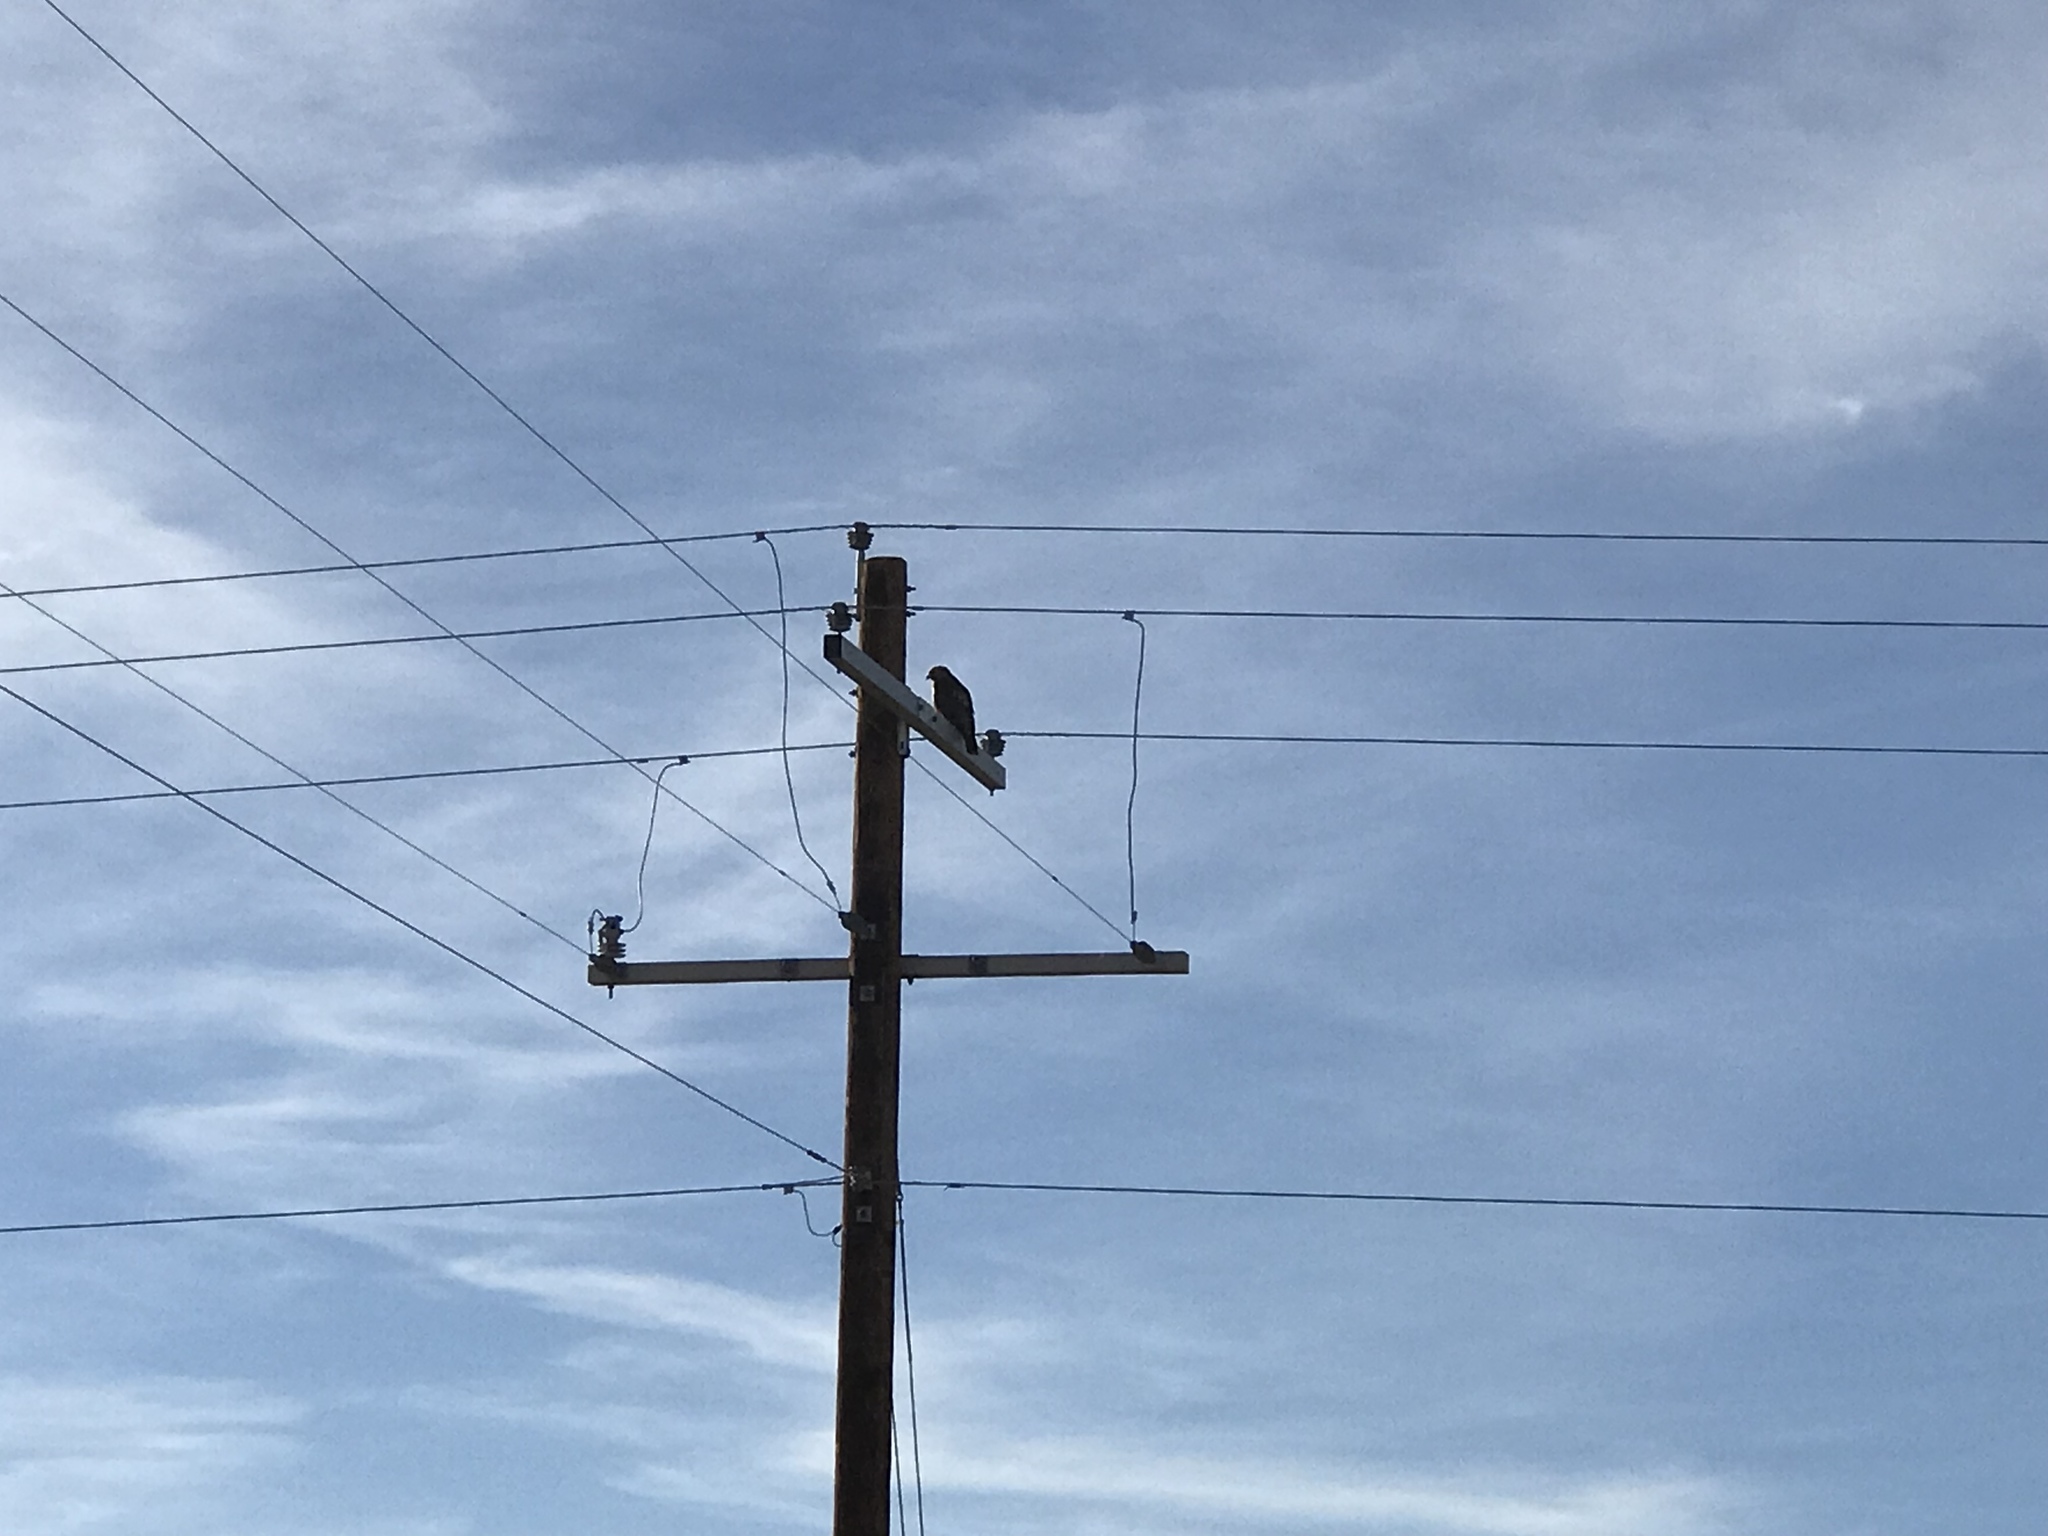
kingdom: Animalia
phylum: Chordata
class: Aves
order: Accipitriformes
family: Accipitridae
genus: Buteo
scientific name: Buteo jamaicensis
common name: Red-tailed hawk
